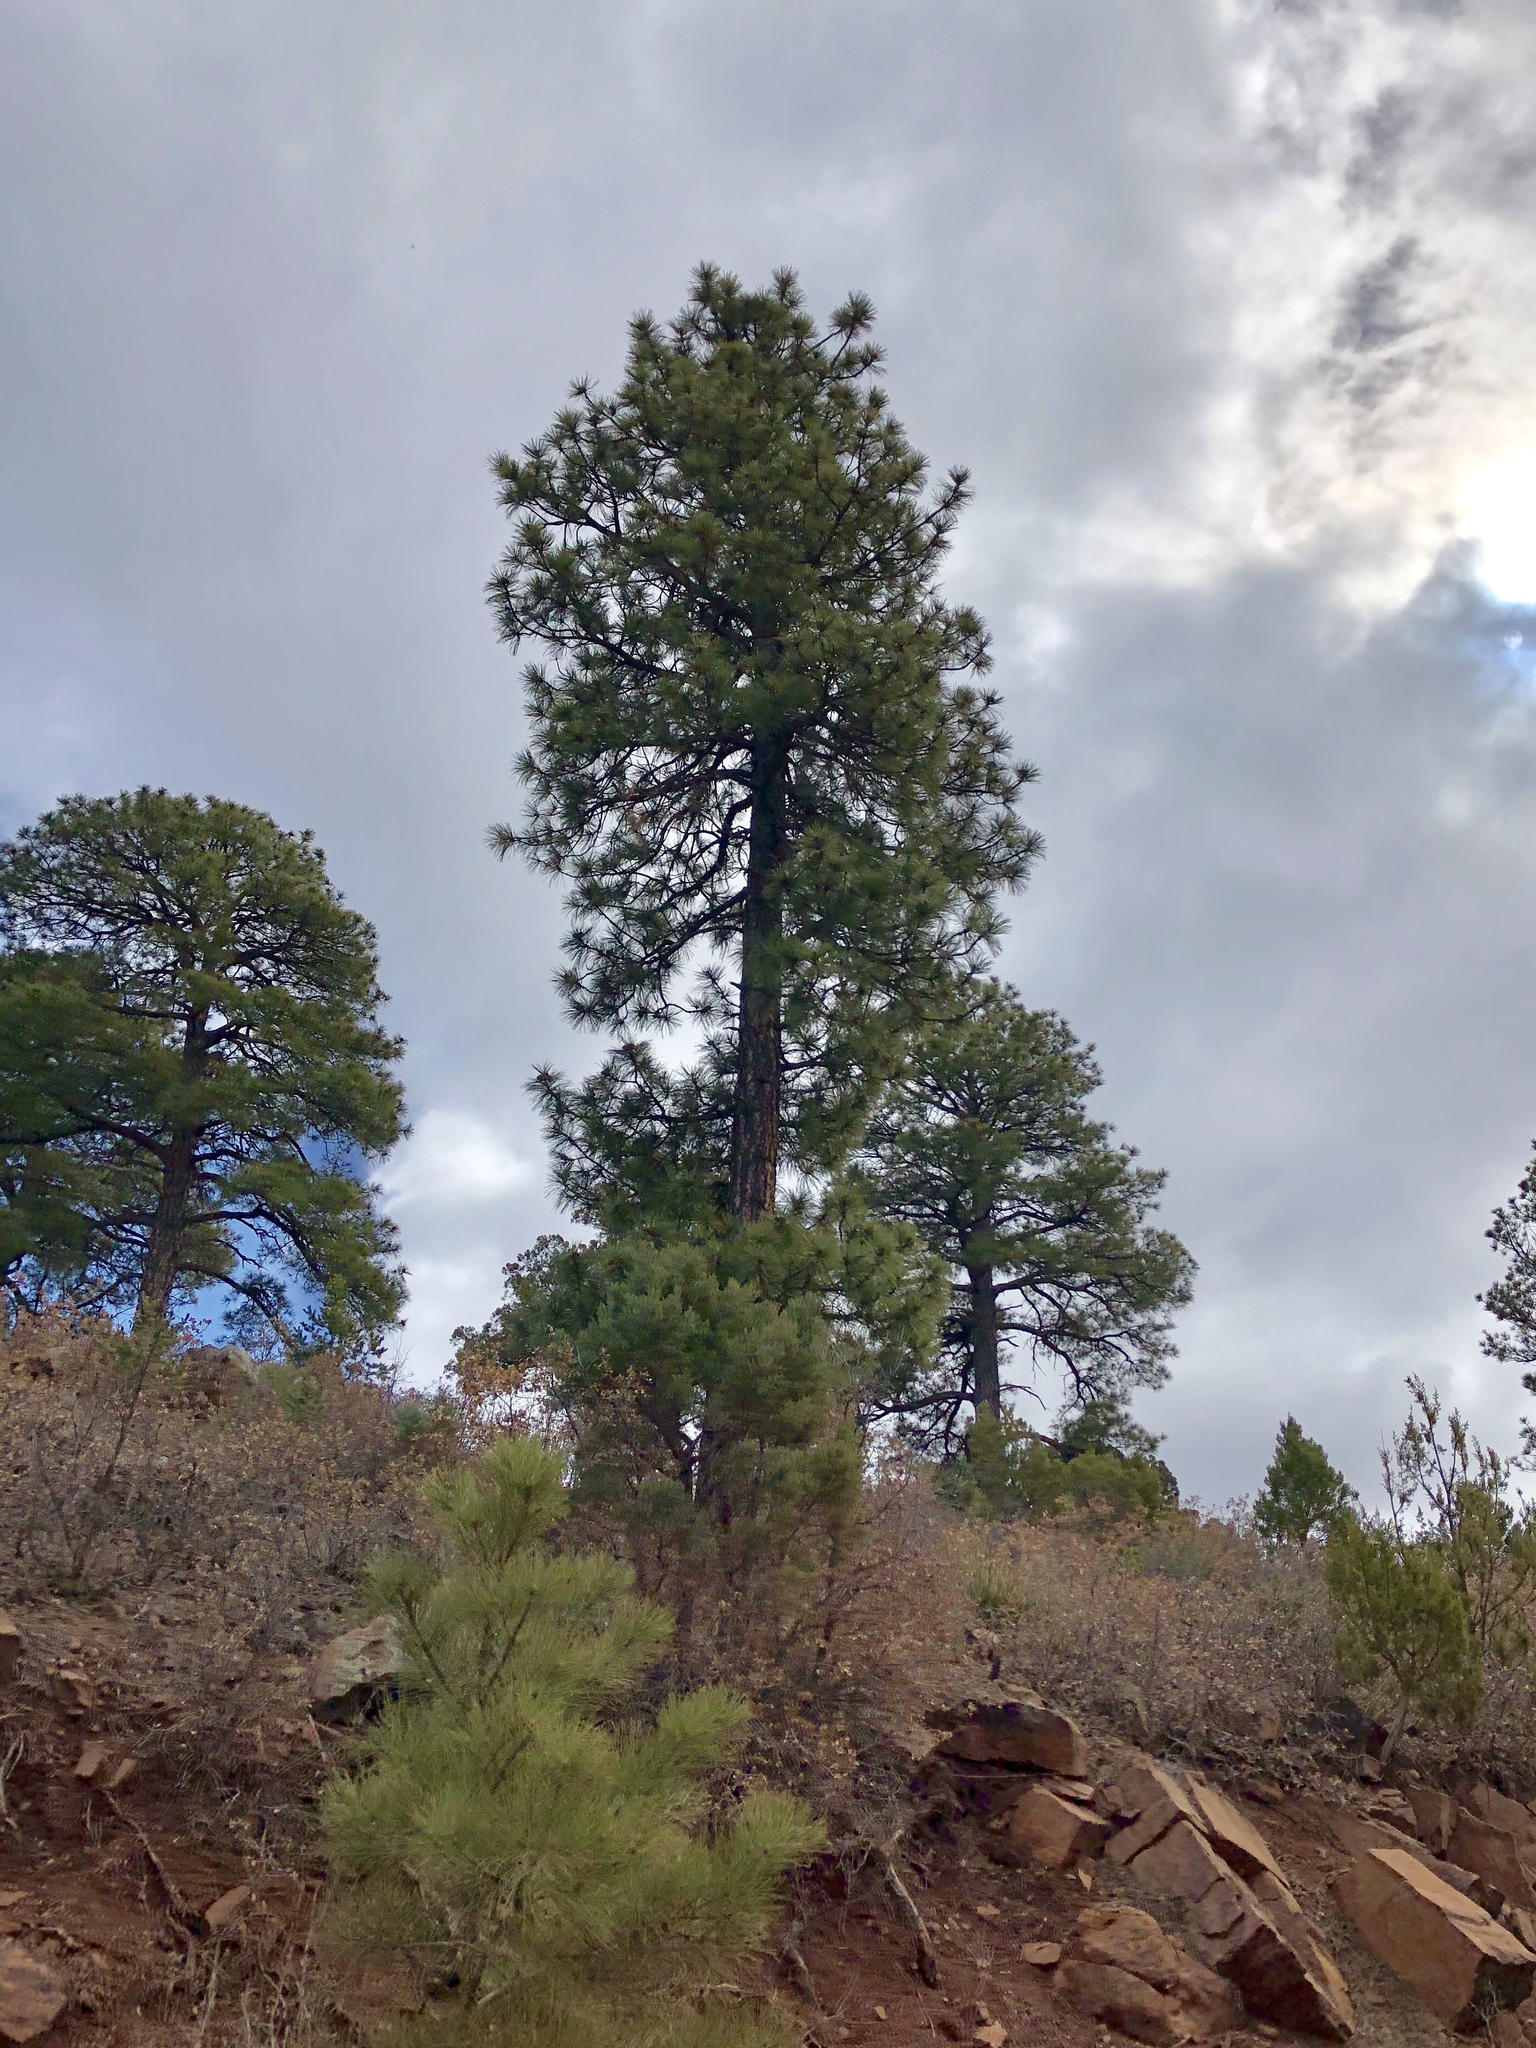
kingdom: Plantae
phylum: Tracheophyta
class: Pinopsida
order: Pinales
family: Pinaceae
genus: Pinus
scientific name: Pinus ponderosa
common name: Western yellow-pine
